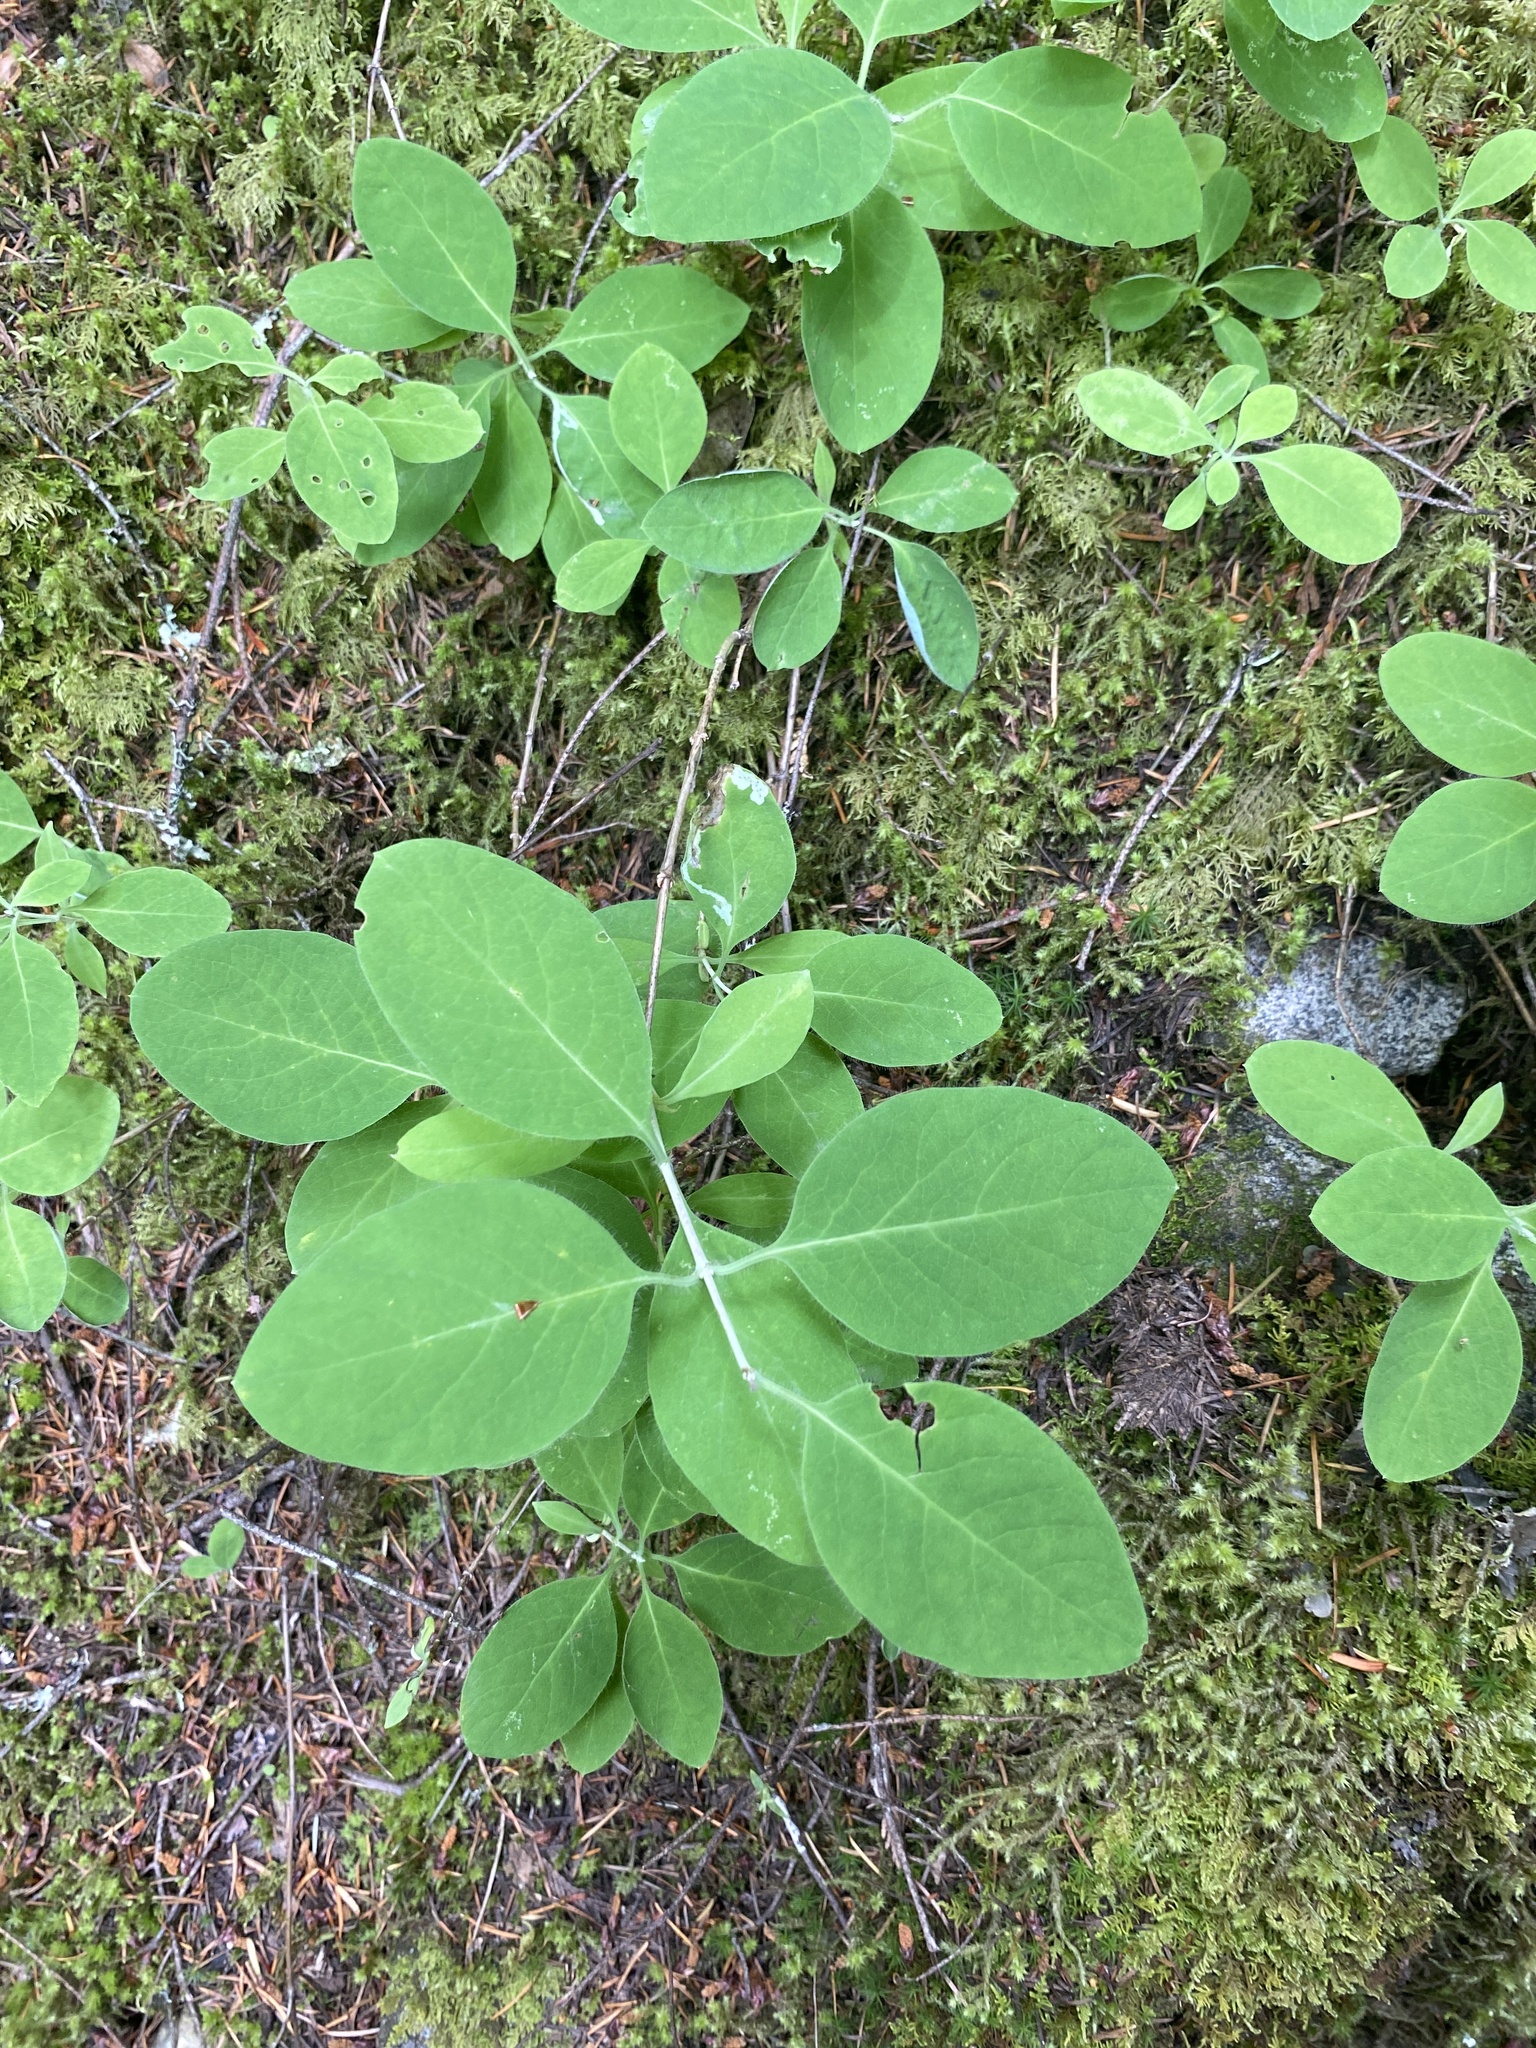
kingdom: Plantae
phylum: Tracheophyta
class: Magnoliopsida
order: Dipsacales
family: Caprifoliaceae
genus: Lonicera
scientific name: Lonicera ciliosa
